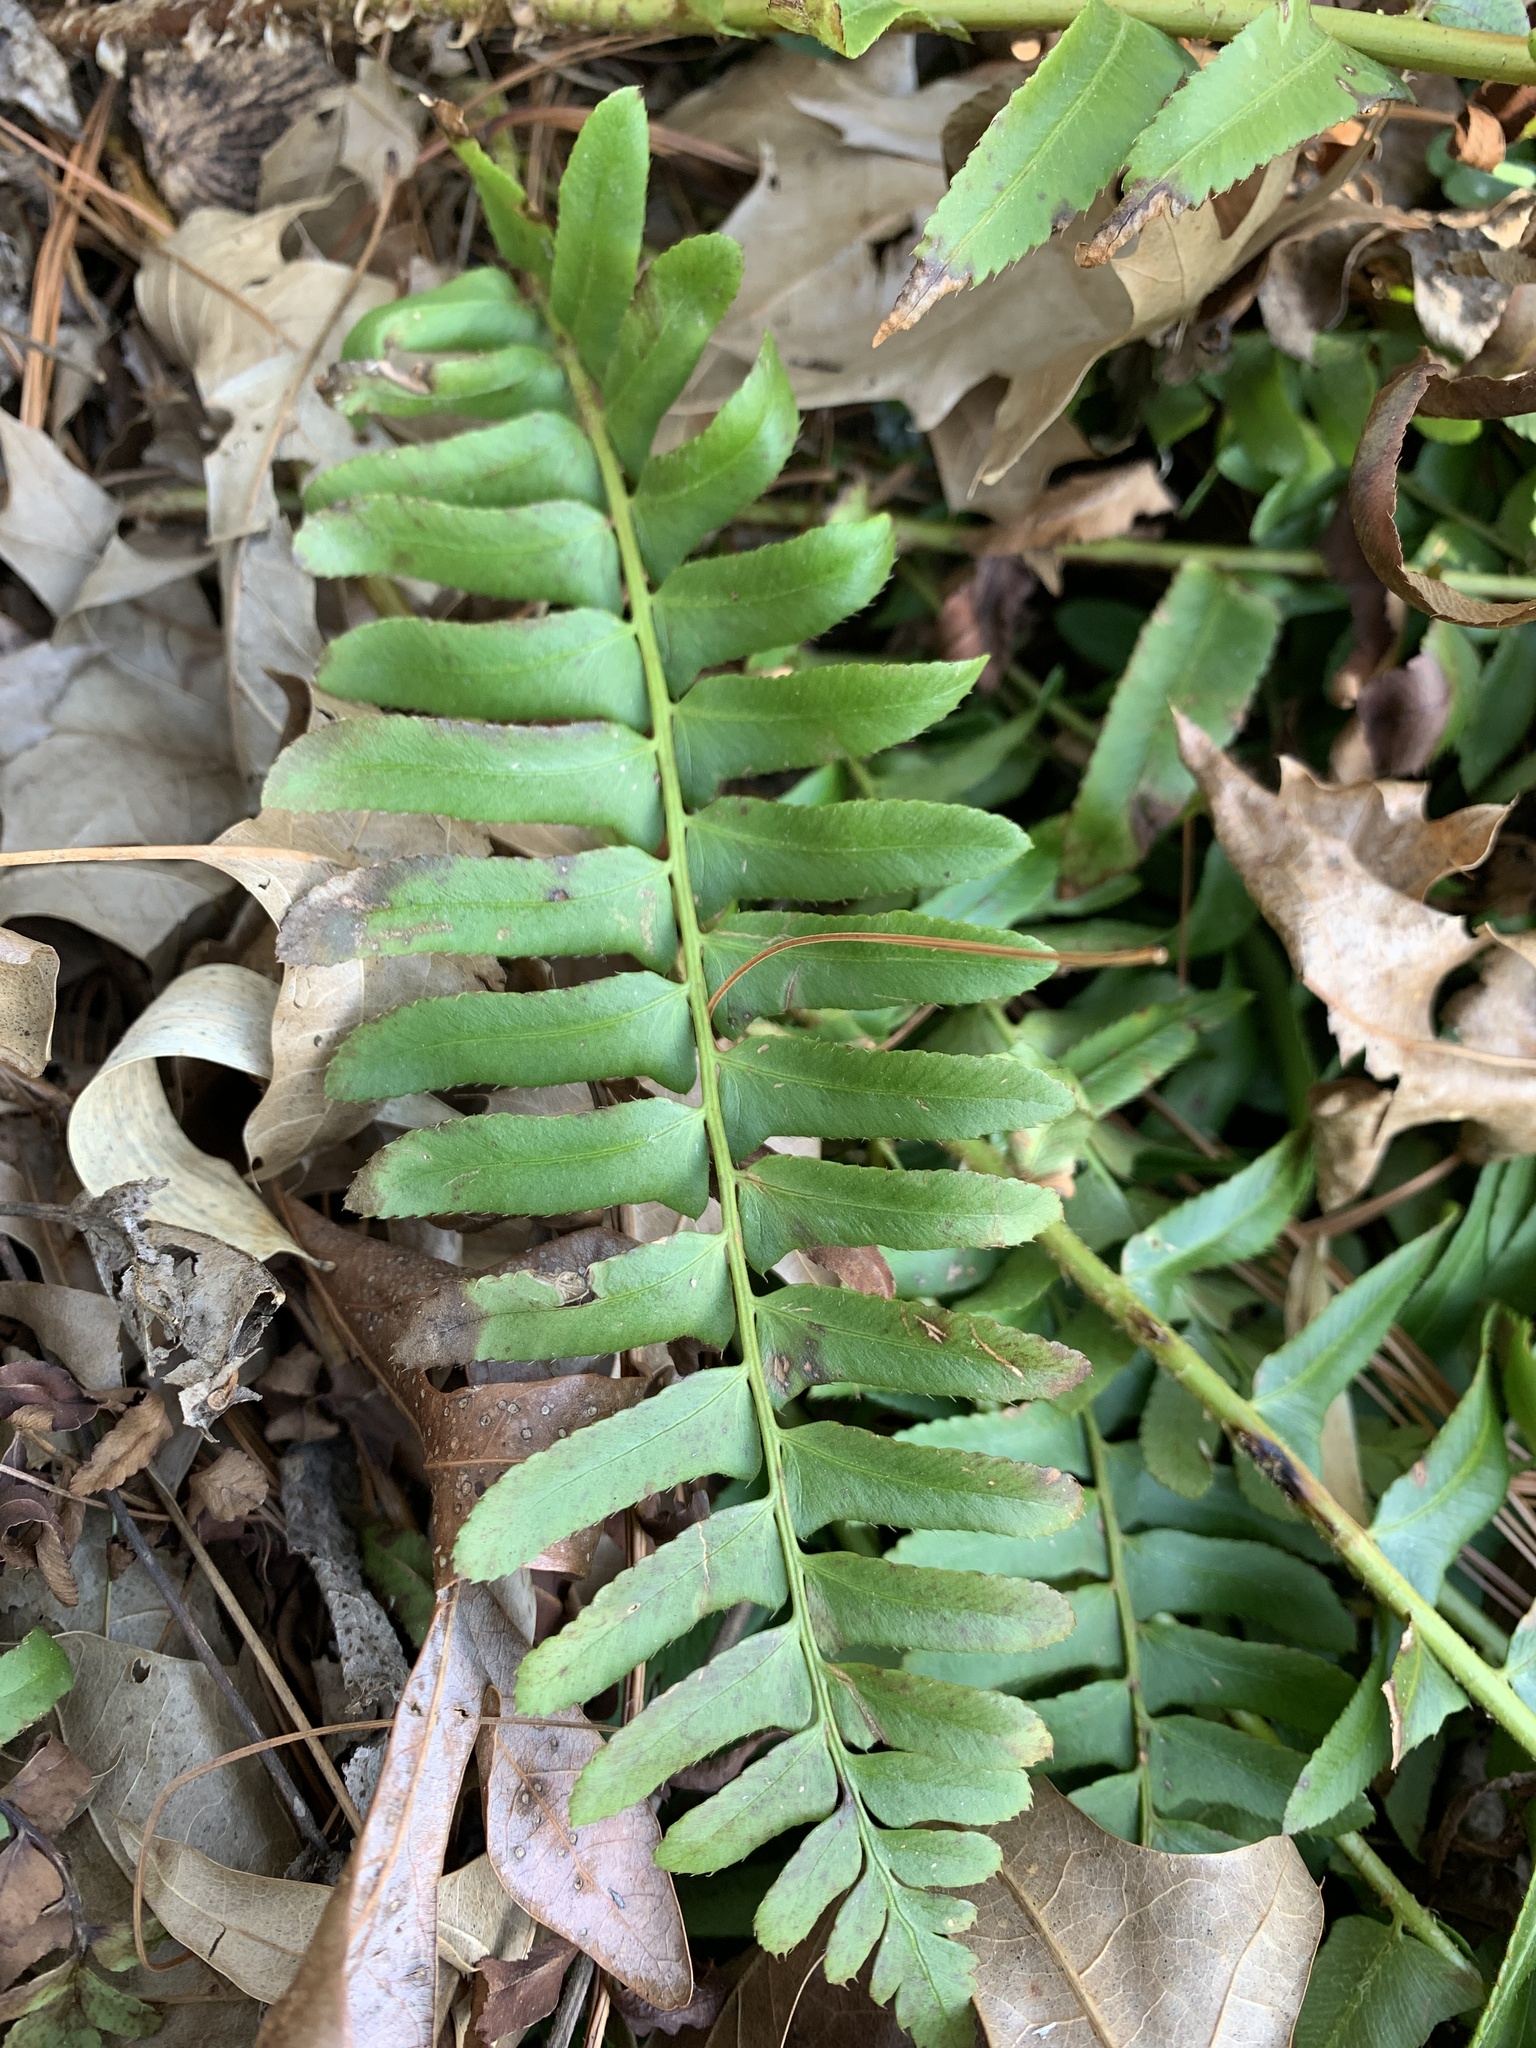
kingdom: Plantae
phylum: Tracheophyta
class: Polypodiopsida
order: Polypodiales
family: Dryopteridaceae
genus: Polystichum
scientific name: Polystichum acrostichoides
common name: Christmas fern
